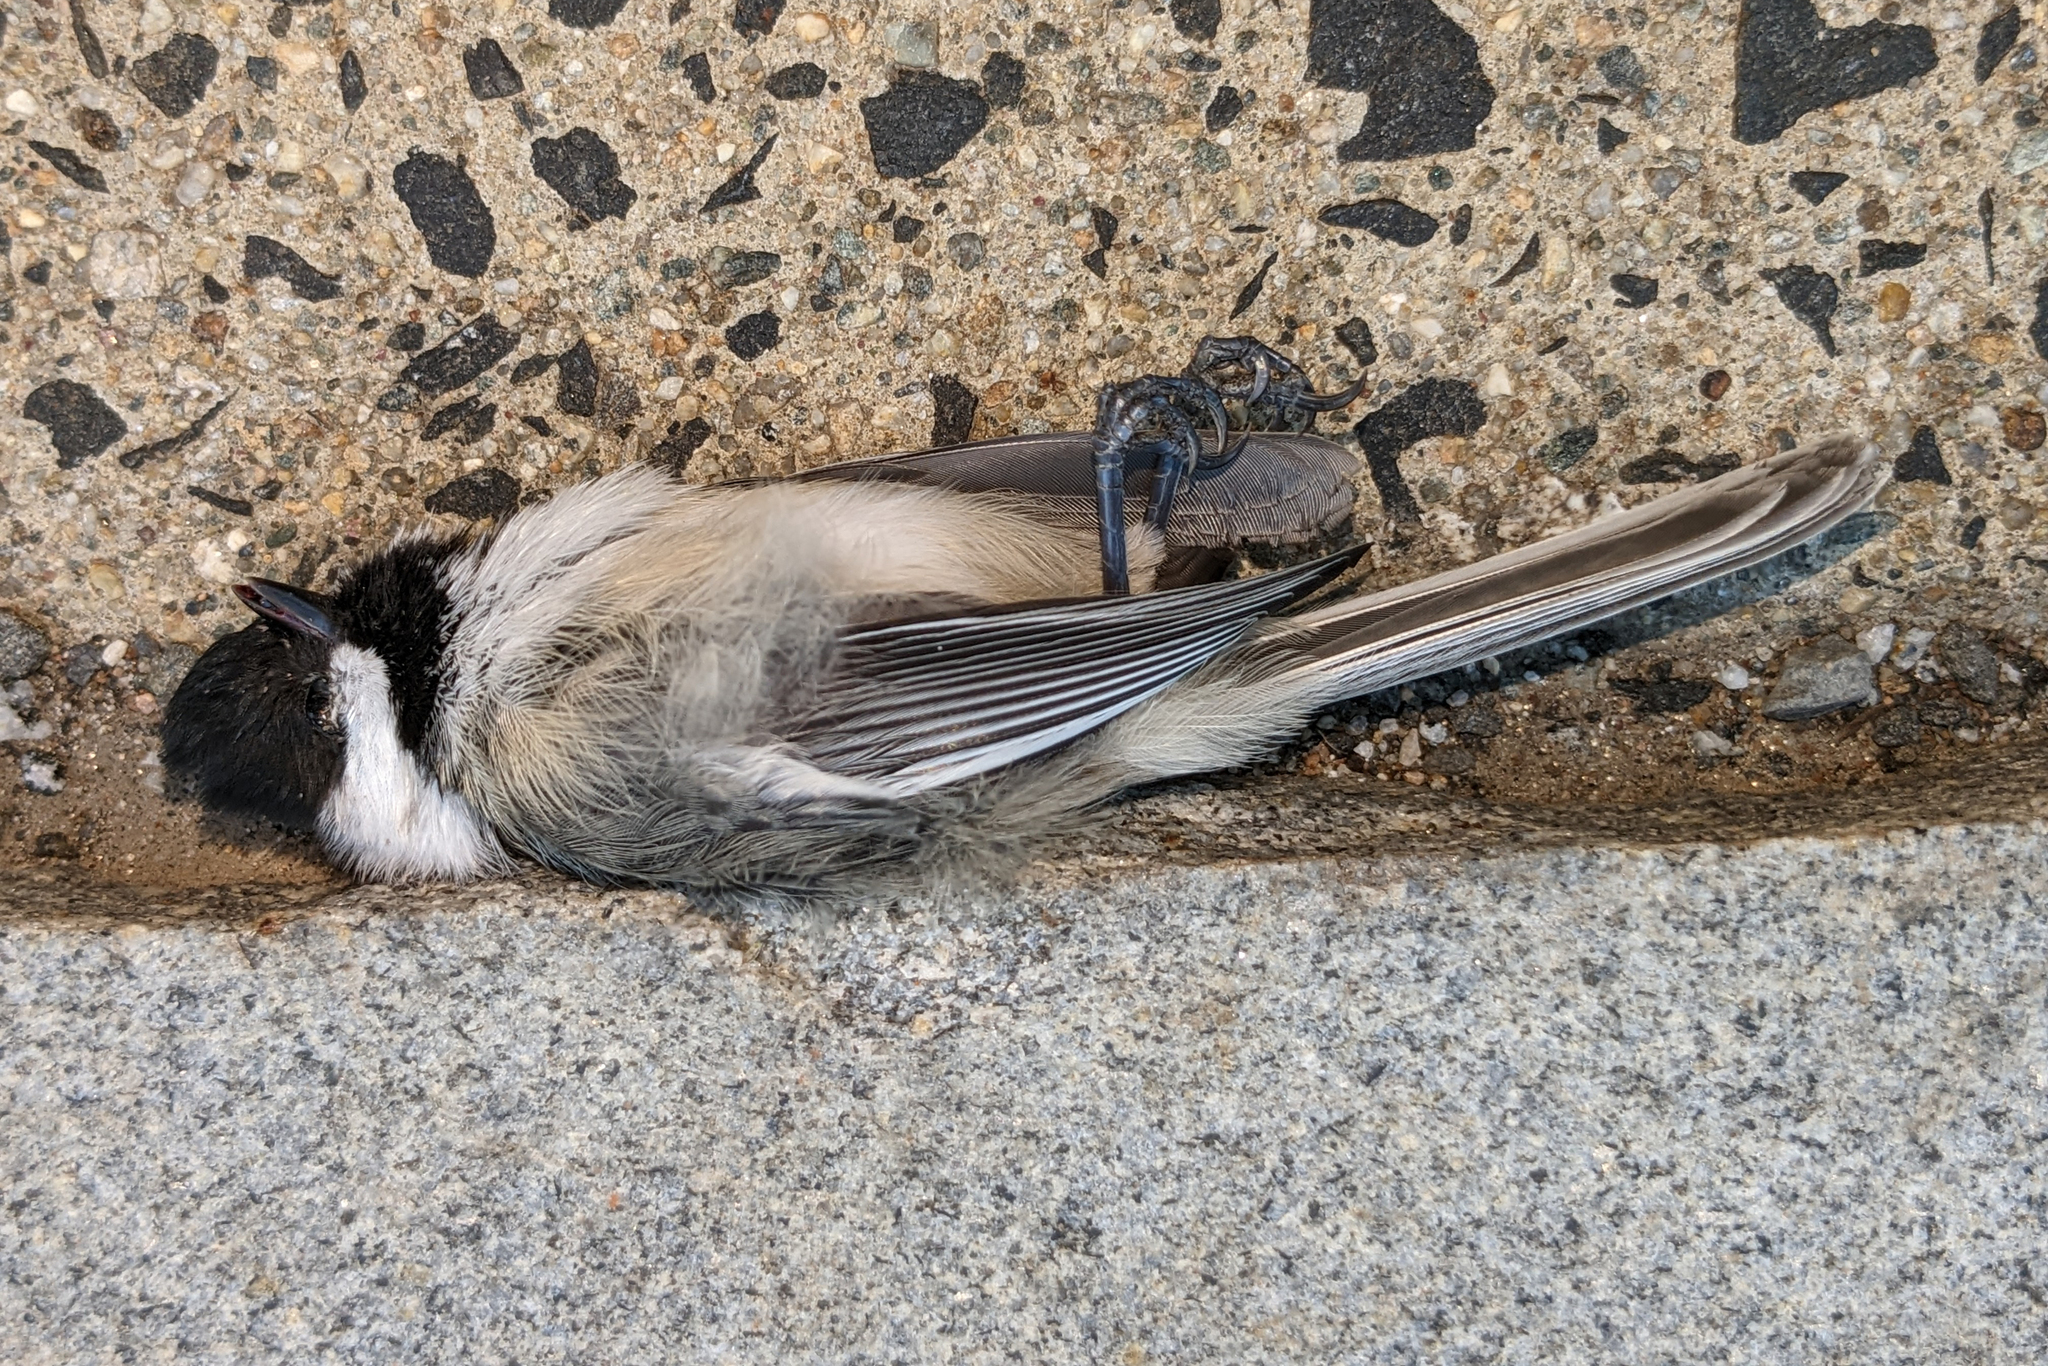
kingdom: Animalia
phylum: Chordata
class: Aves
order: Passeriformes
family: Paridae
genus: Poecile
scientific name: Poecile atricapillus
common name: Black-capped chickadee
